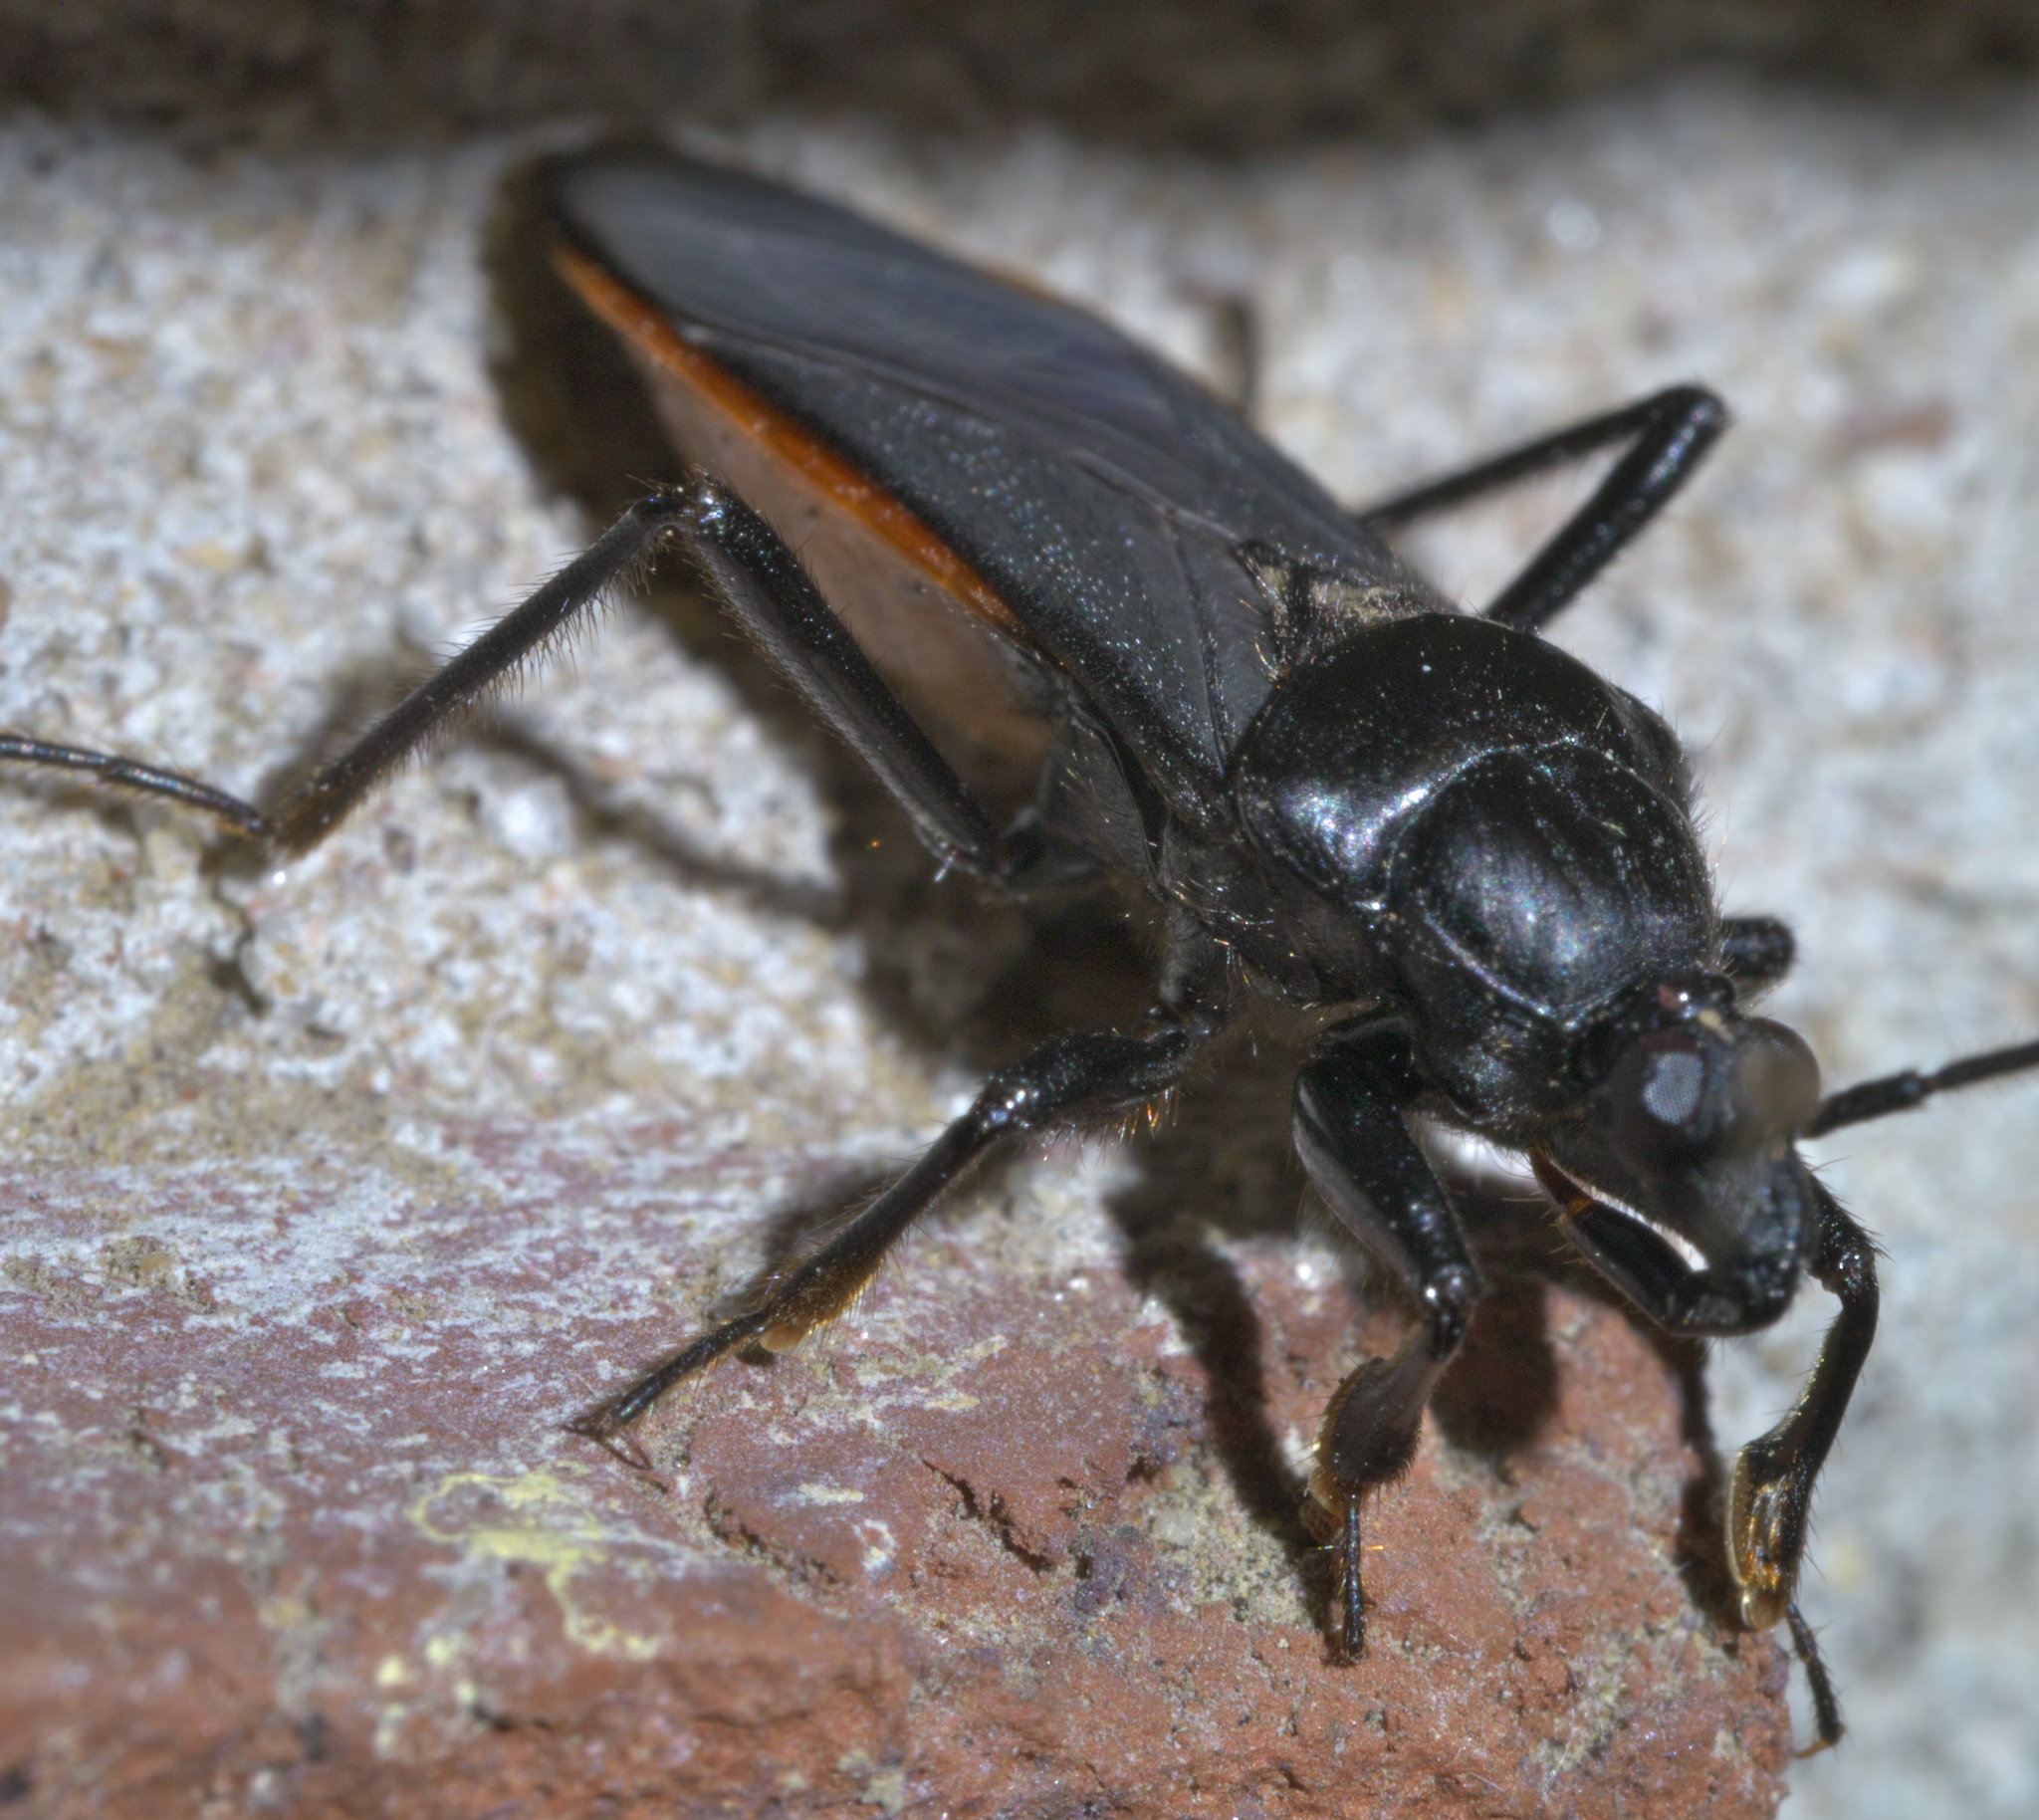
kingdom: Animalia
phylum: Arthropoda
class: Insecta
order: Hemiptera
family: Reduviidae
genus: Melanolestes
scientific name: Melanolestes picipes
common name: Assassin bug
